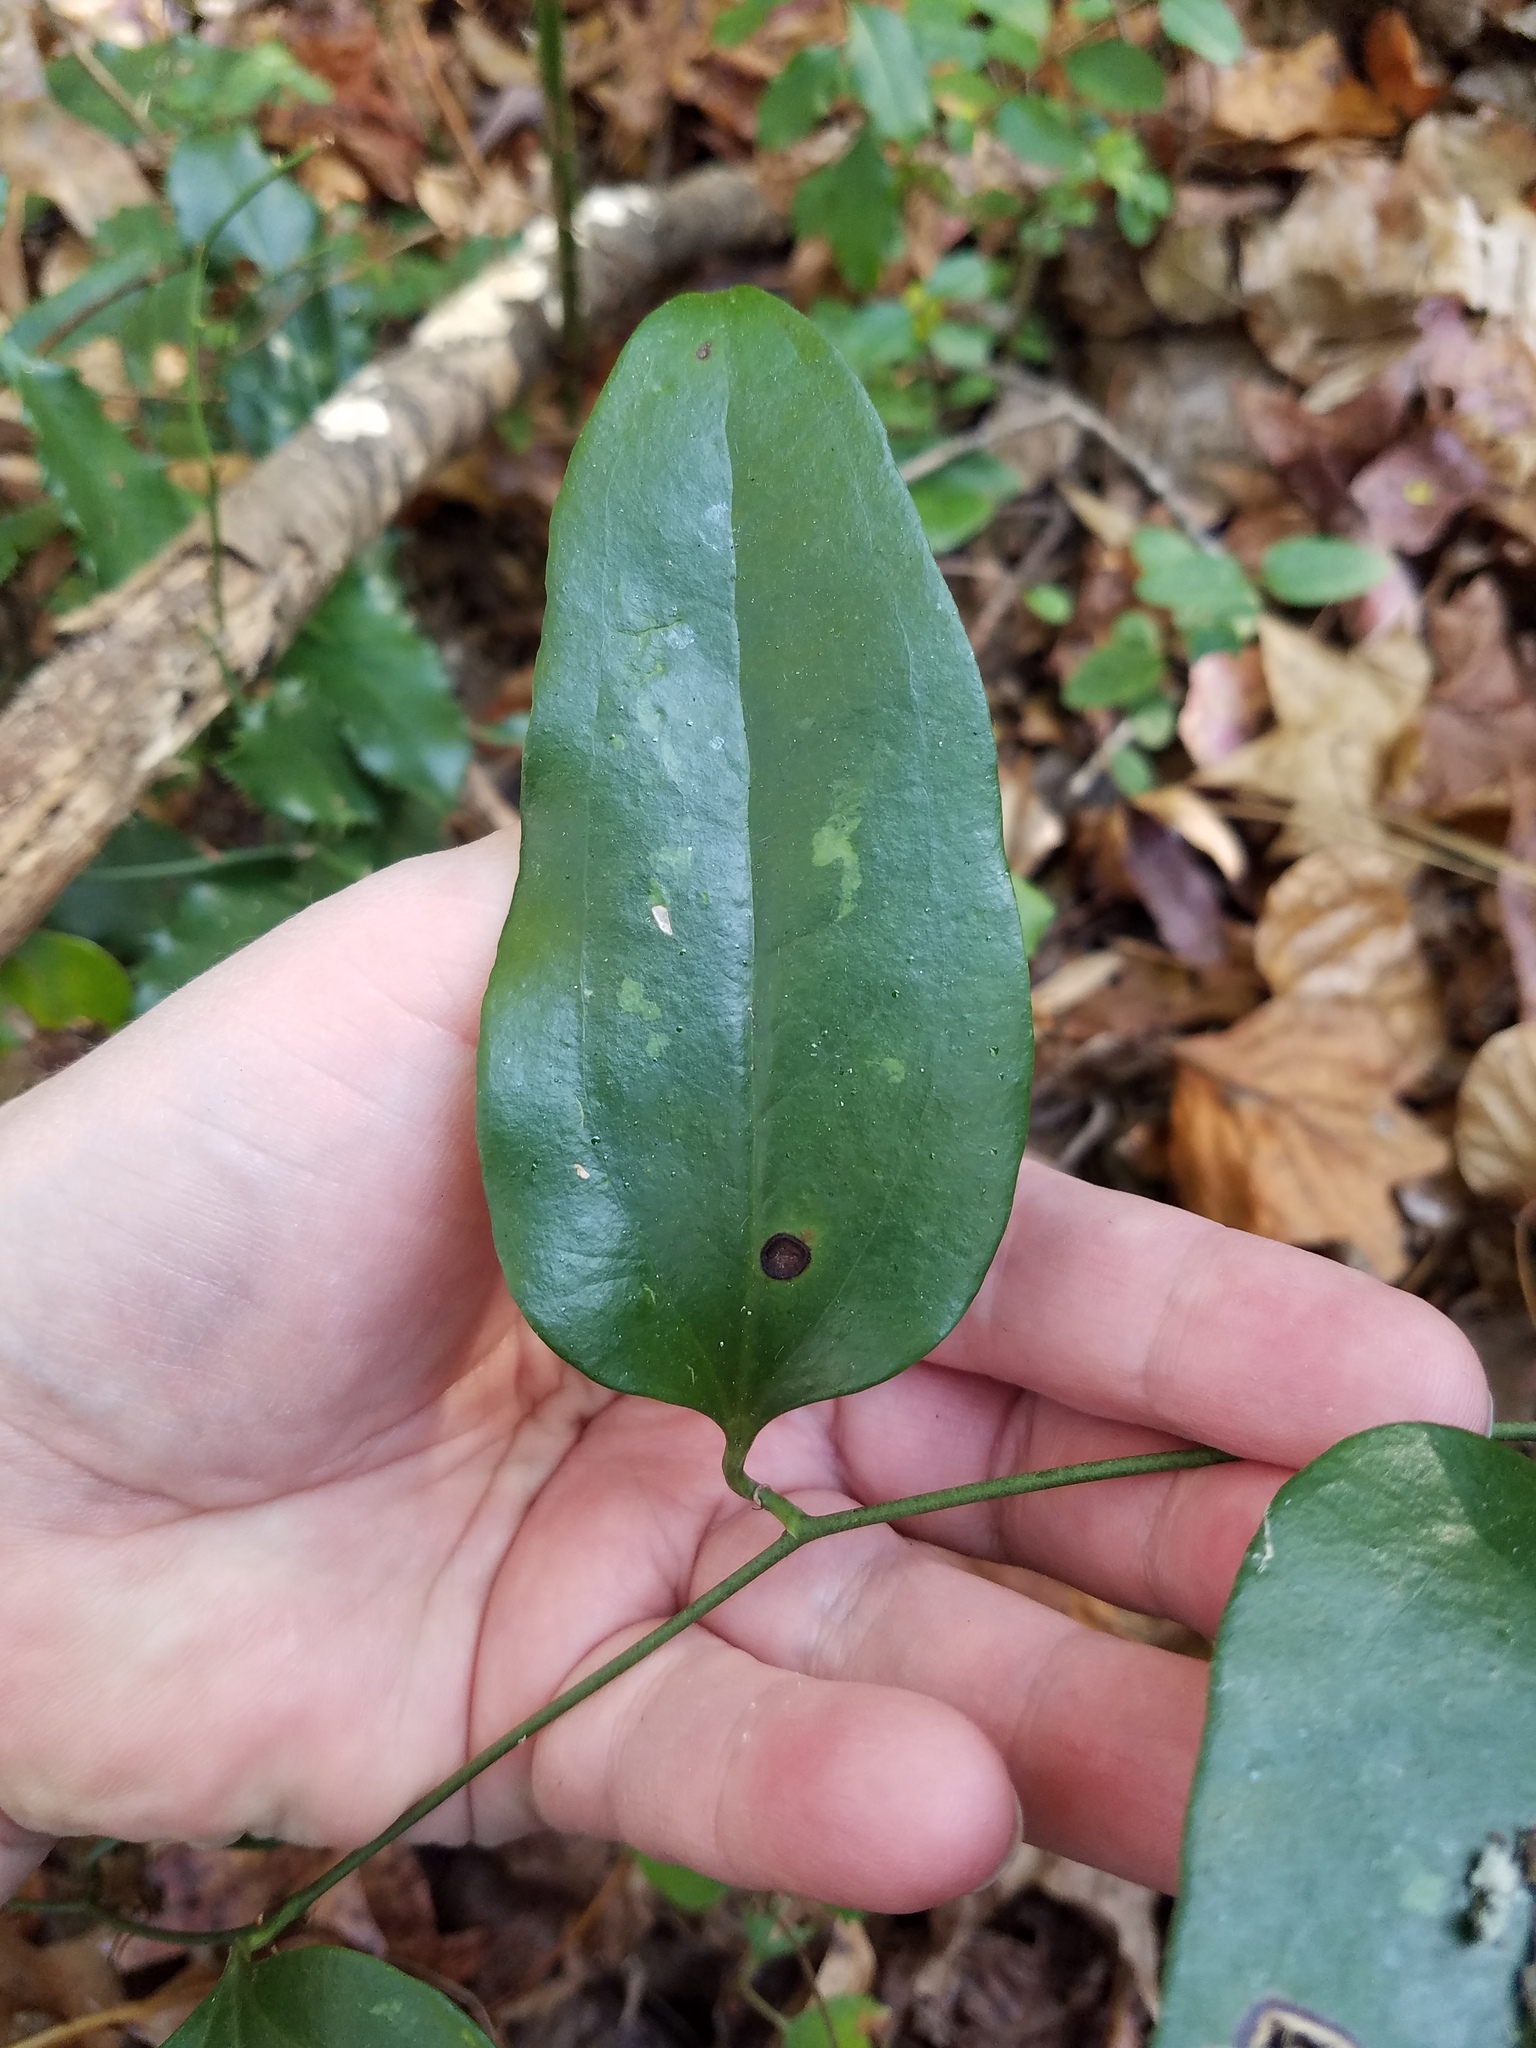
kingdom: Plantae
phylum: Tracheophyta
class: Liliopsida
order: Liliales
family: Smilacaceae
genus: Smilax
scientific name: Smilax maritima
